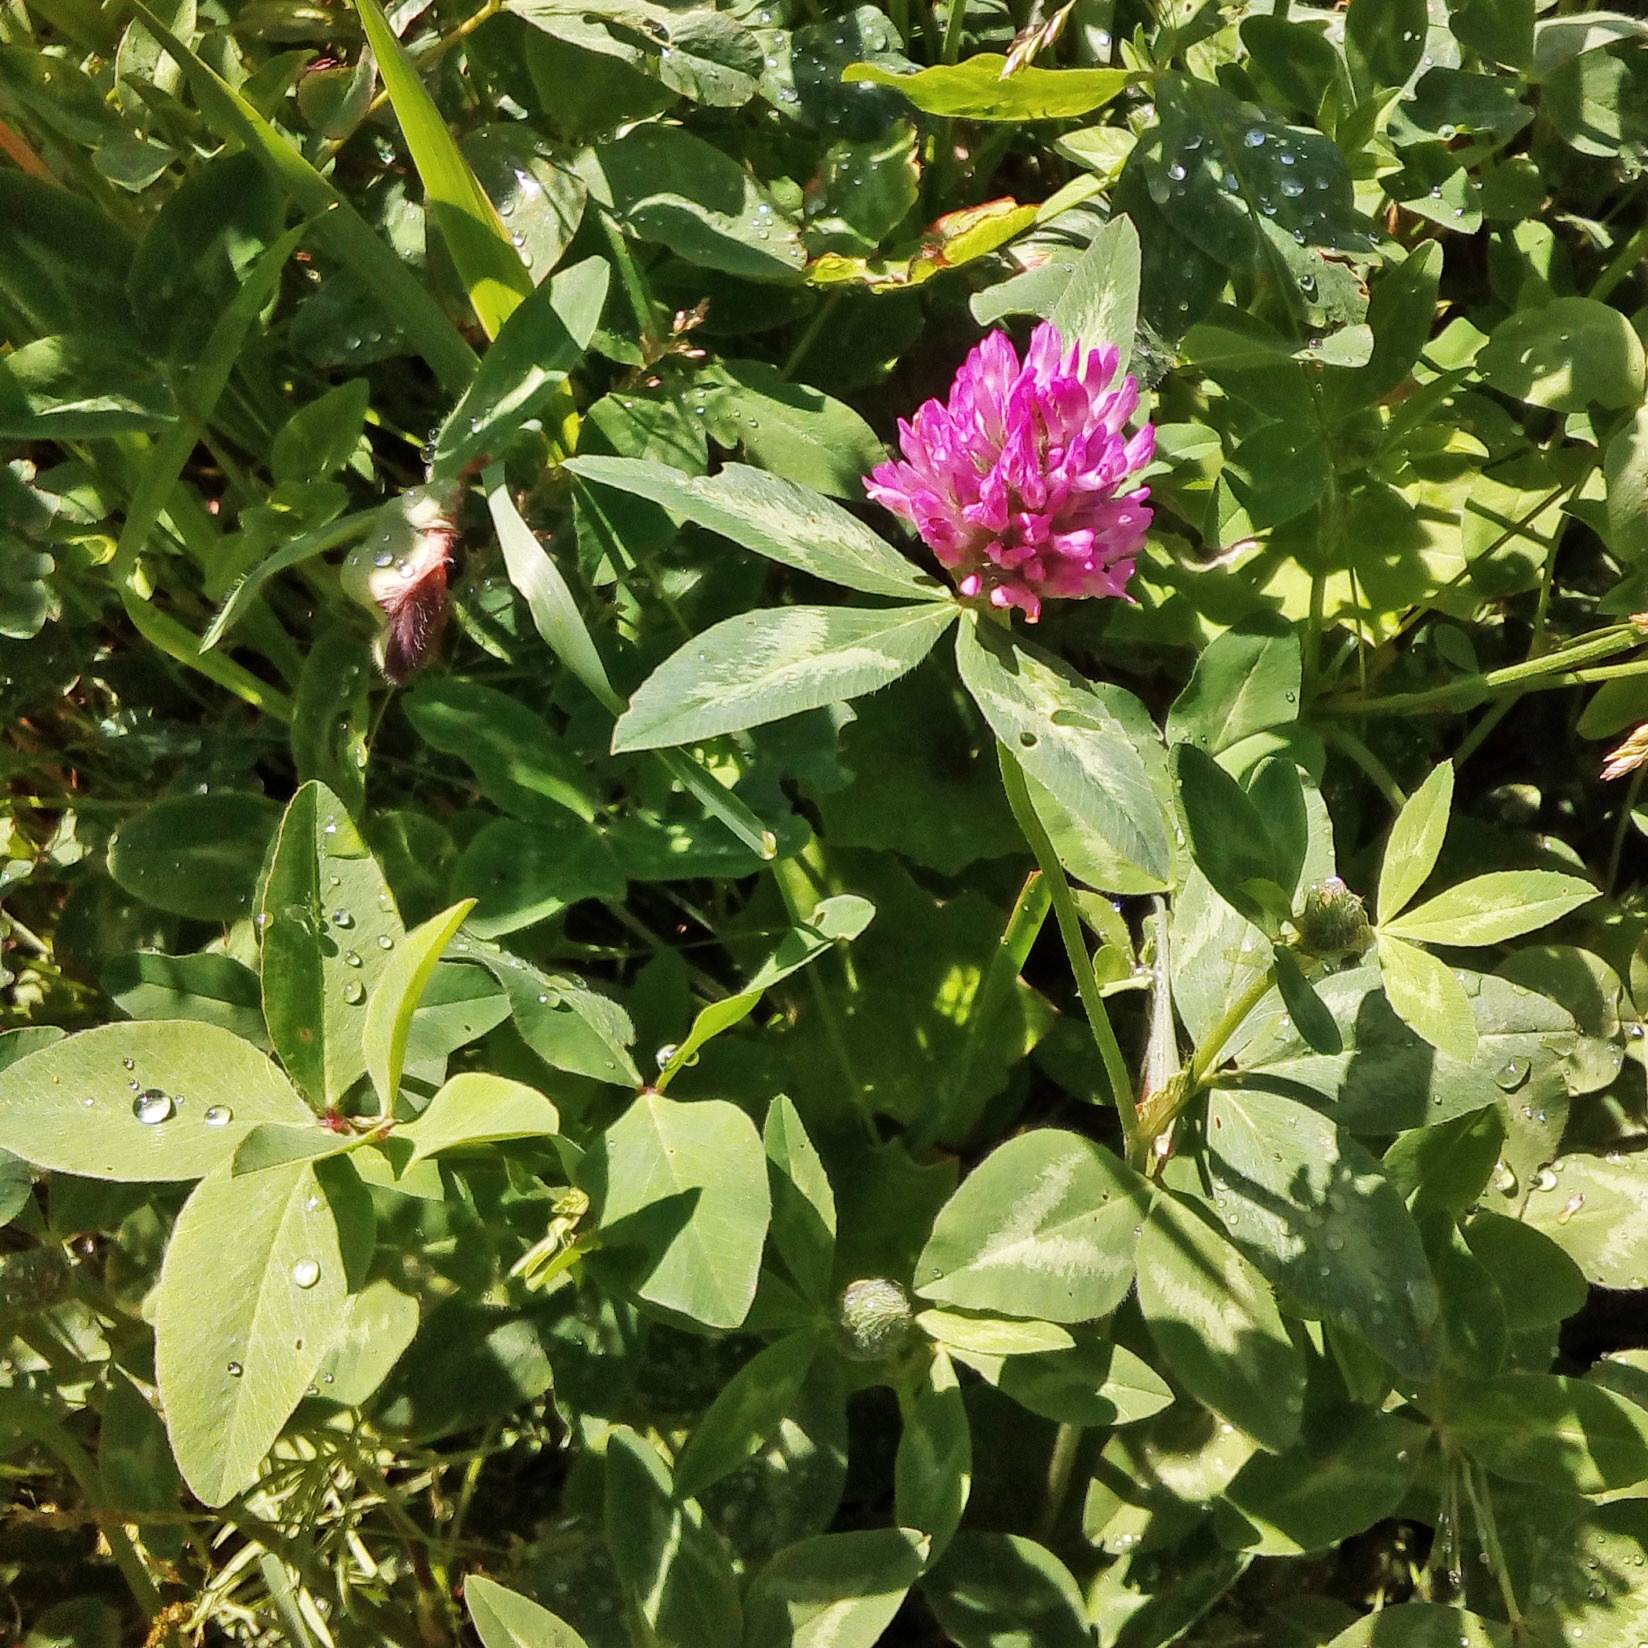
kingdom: Plantae
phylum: Tracheophyta
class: Magnoliopsida
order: Fabales
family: Fabaceae
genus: Trifolium
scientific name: Trifolium pratense
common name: Red clover
